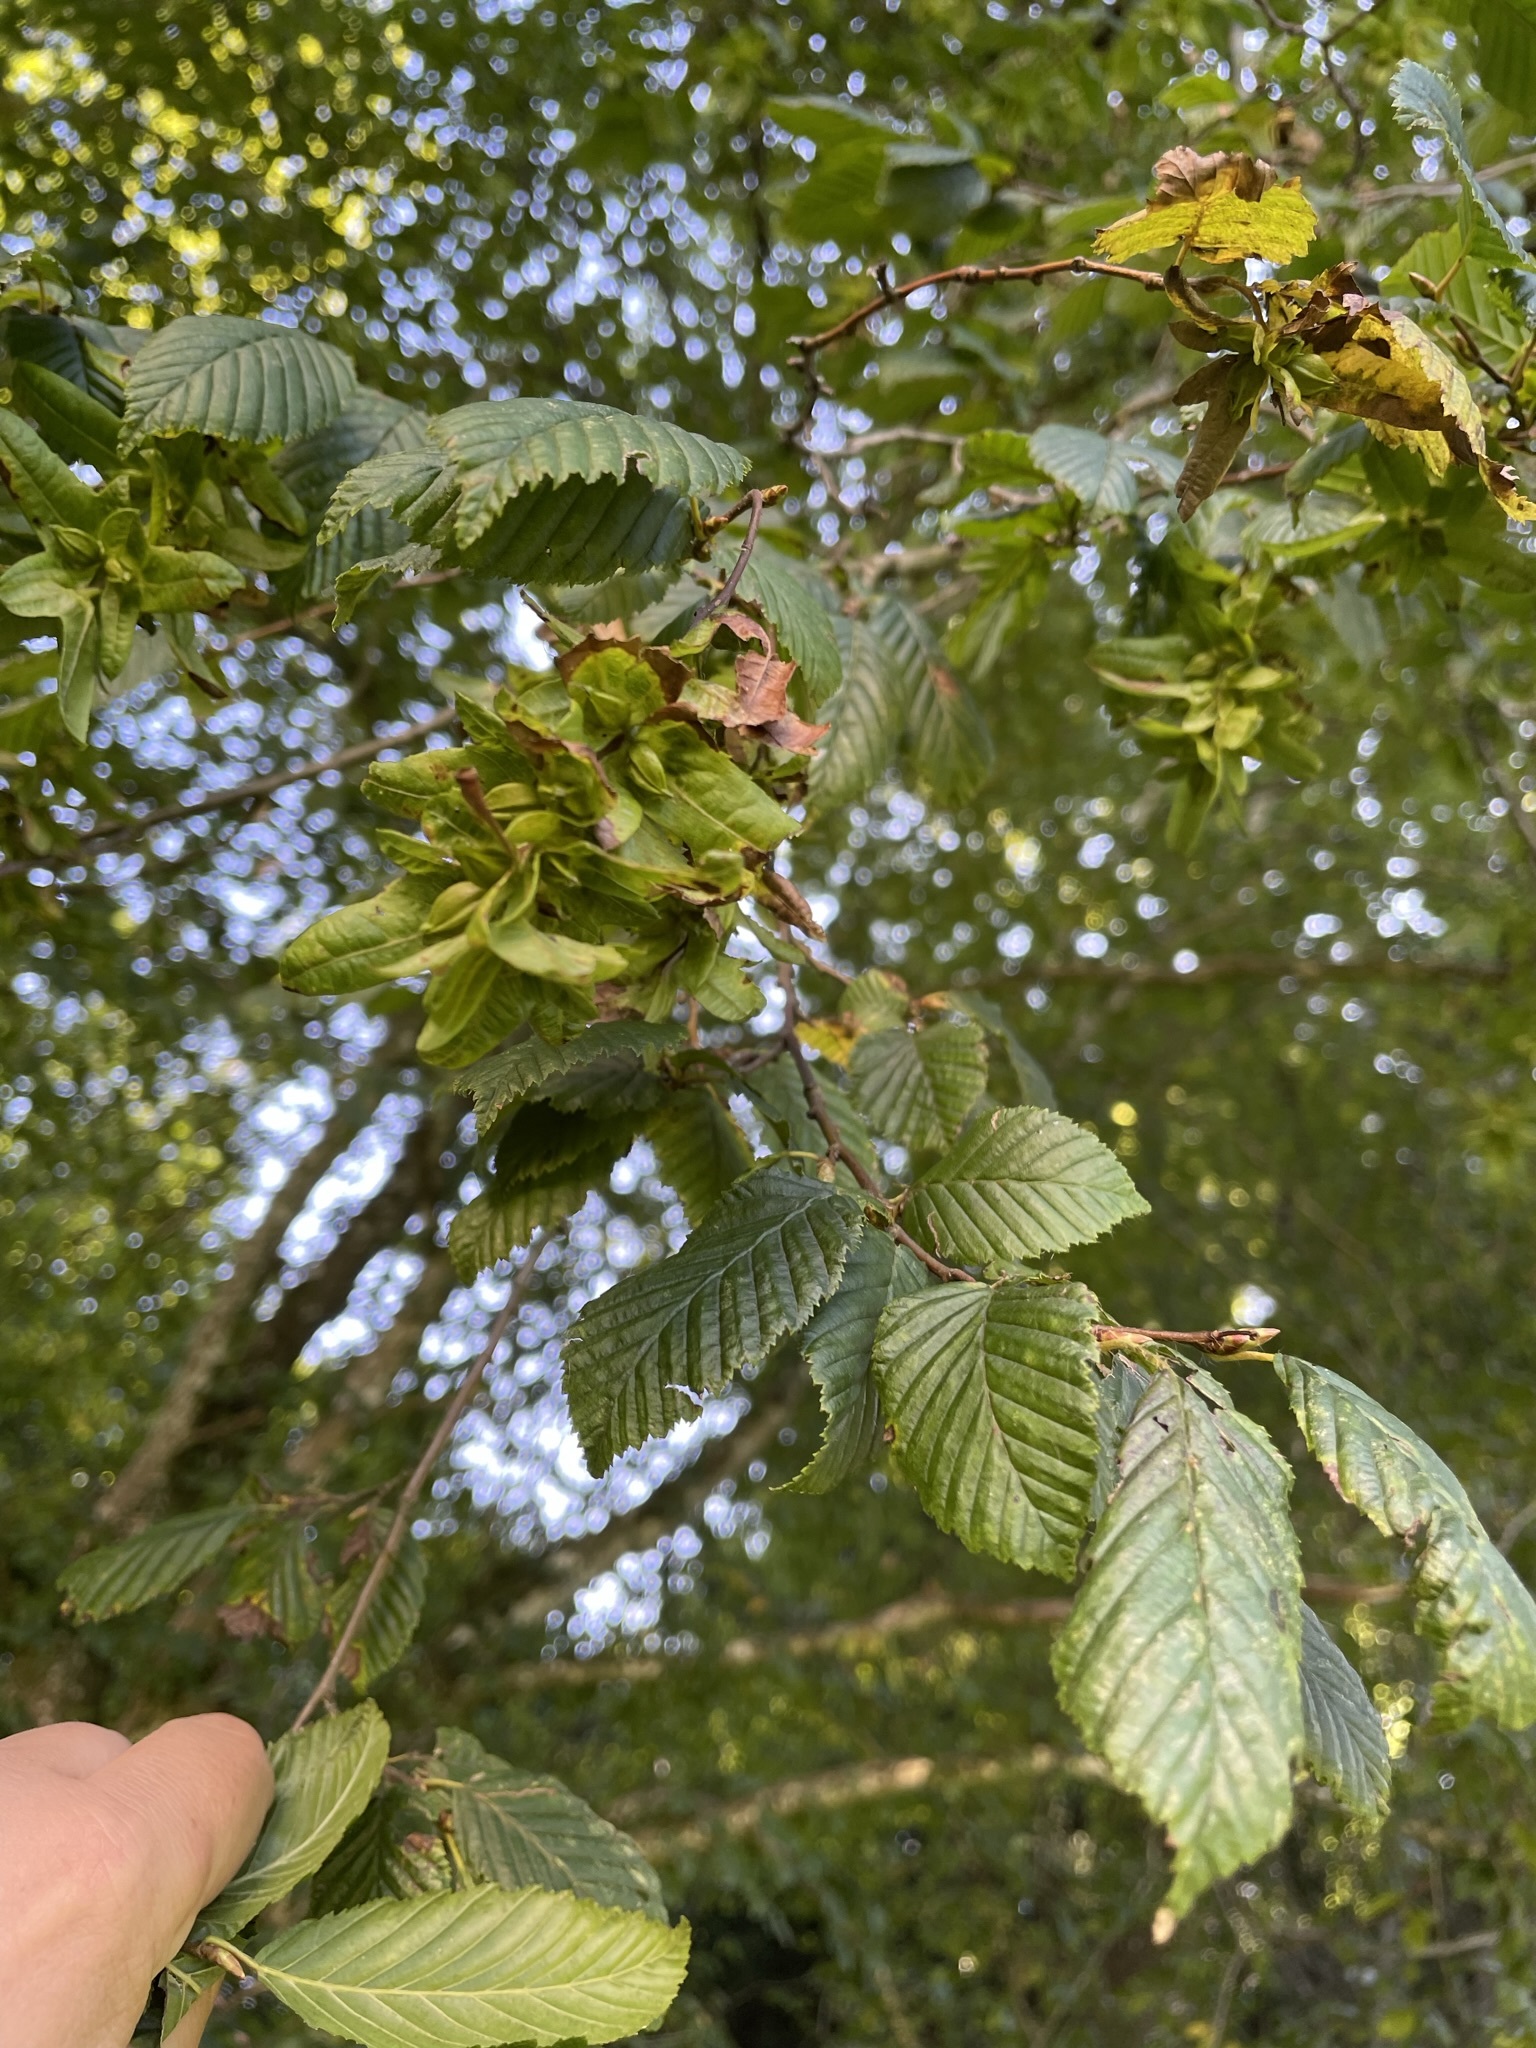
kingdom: Plantae
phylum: Tracheophyta
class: Magnoliopsida
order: Fagales
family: Betulaceae
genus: Carpinus
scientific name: Carpinus betulus
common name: Hornbeam
